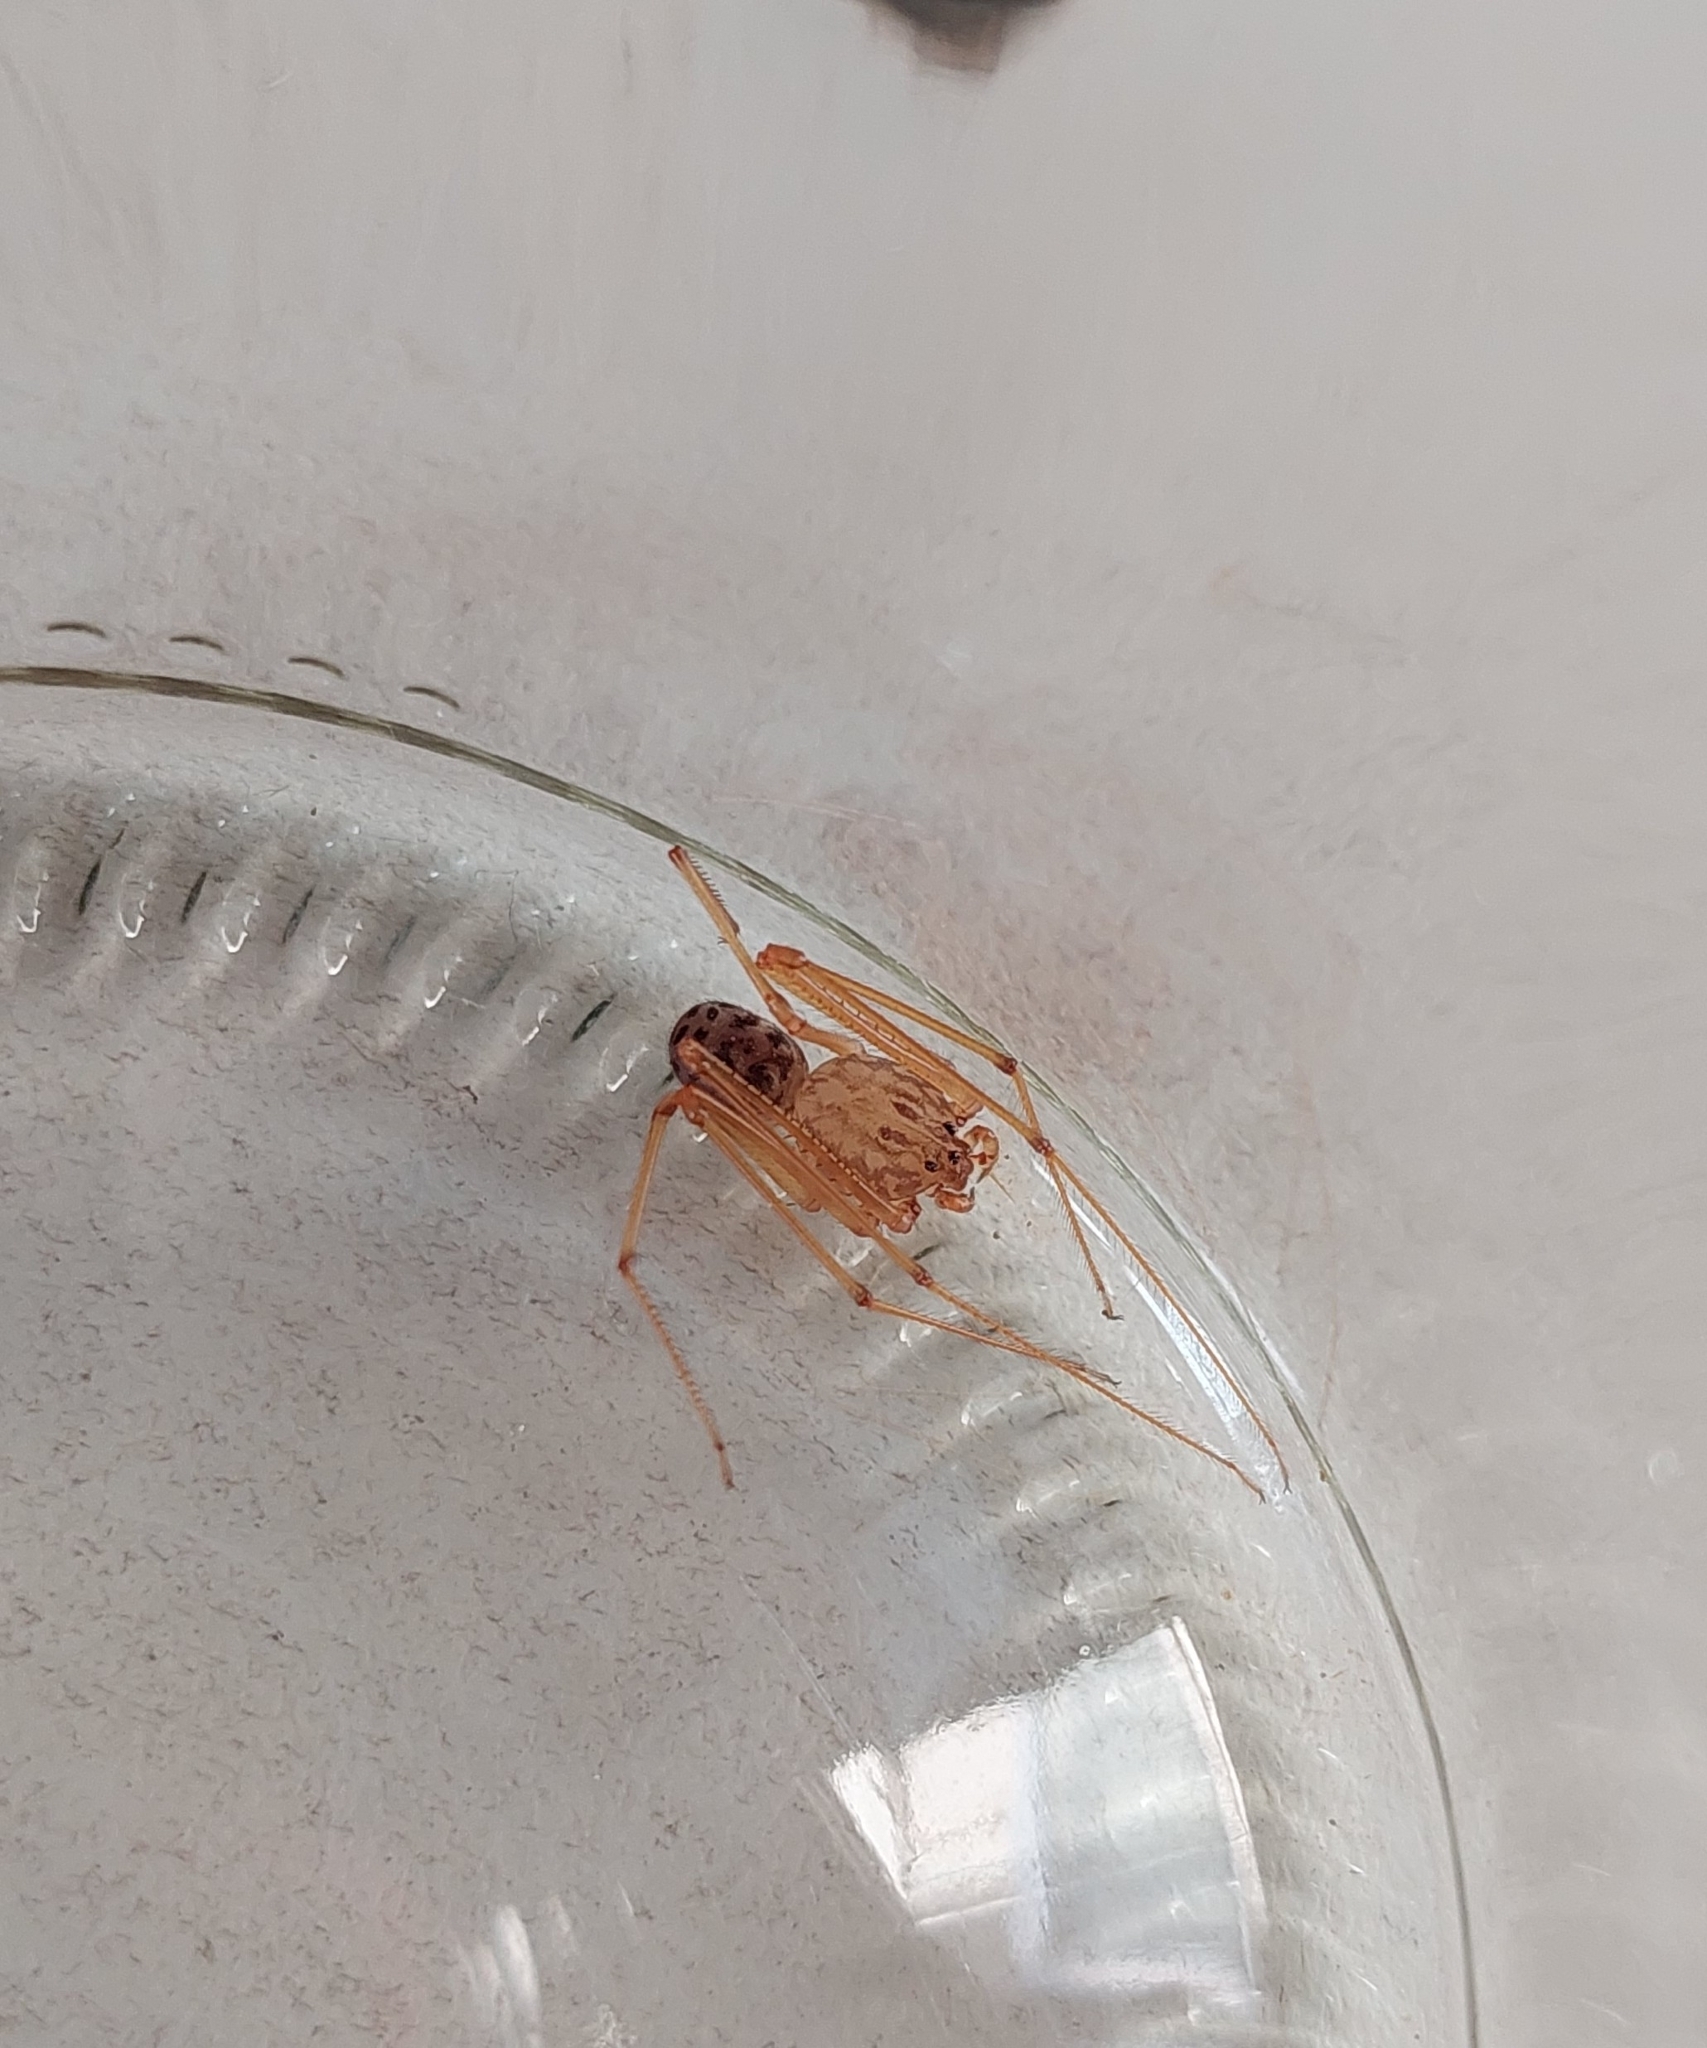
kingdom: Animalia
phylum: Arthropoda
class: Arachnida
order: Araneae
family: Scytodidae
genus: Scytodes
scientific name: Scytodes univittata
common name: Spitting spider
